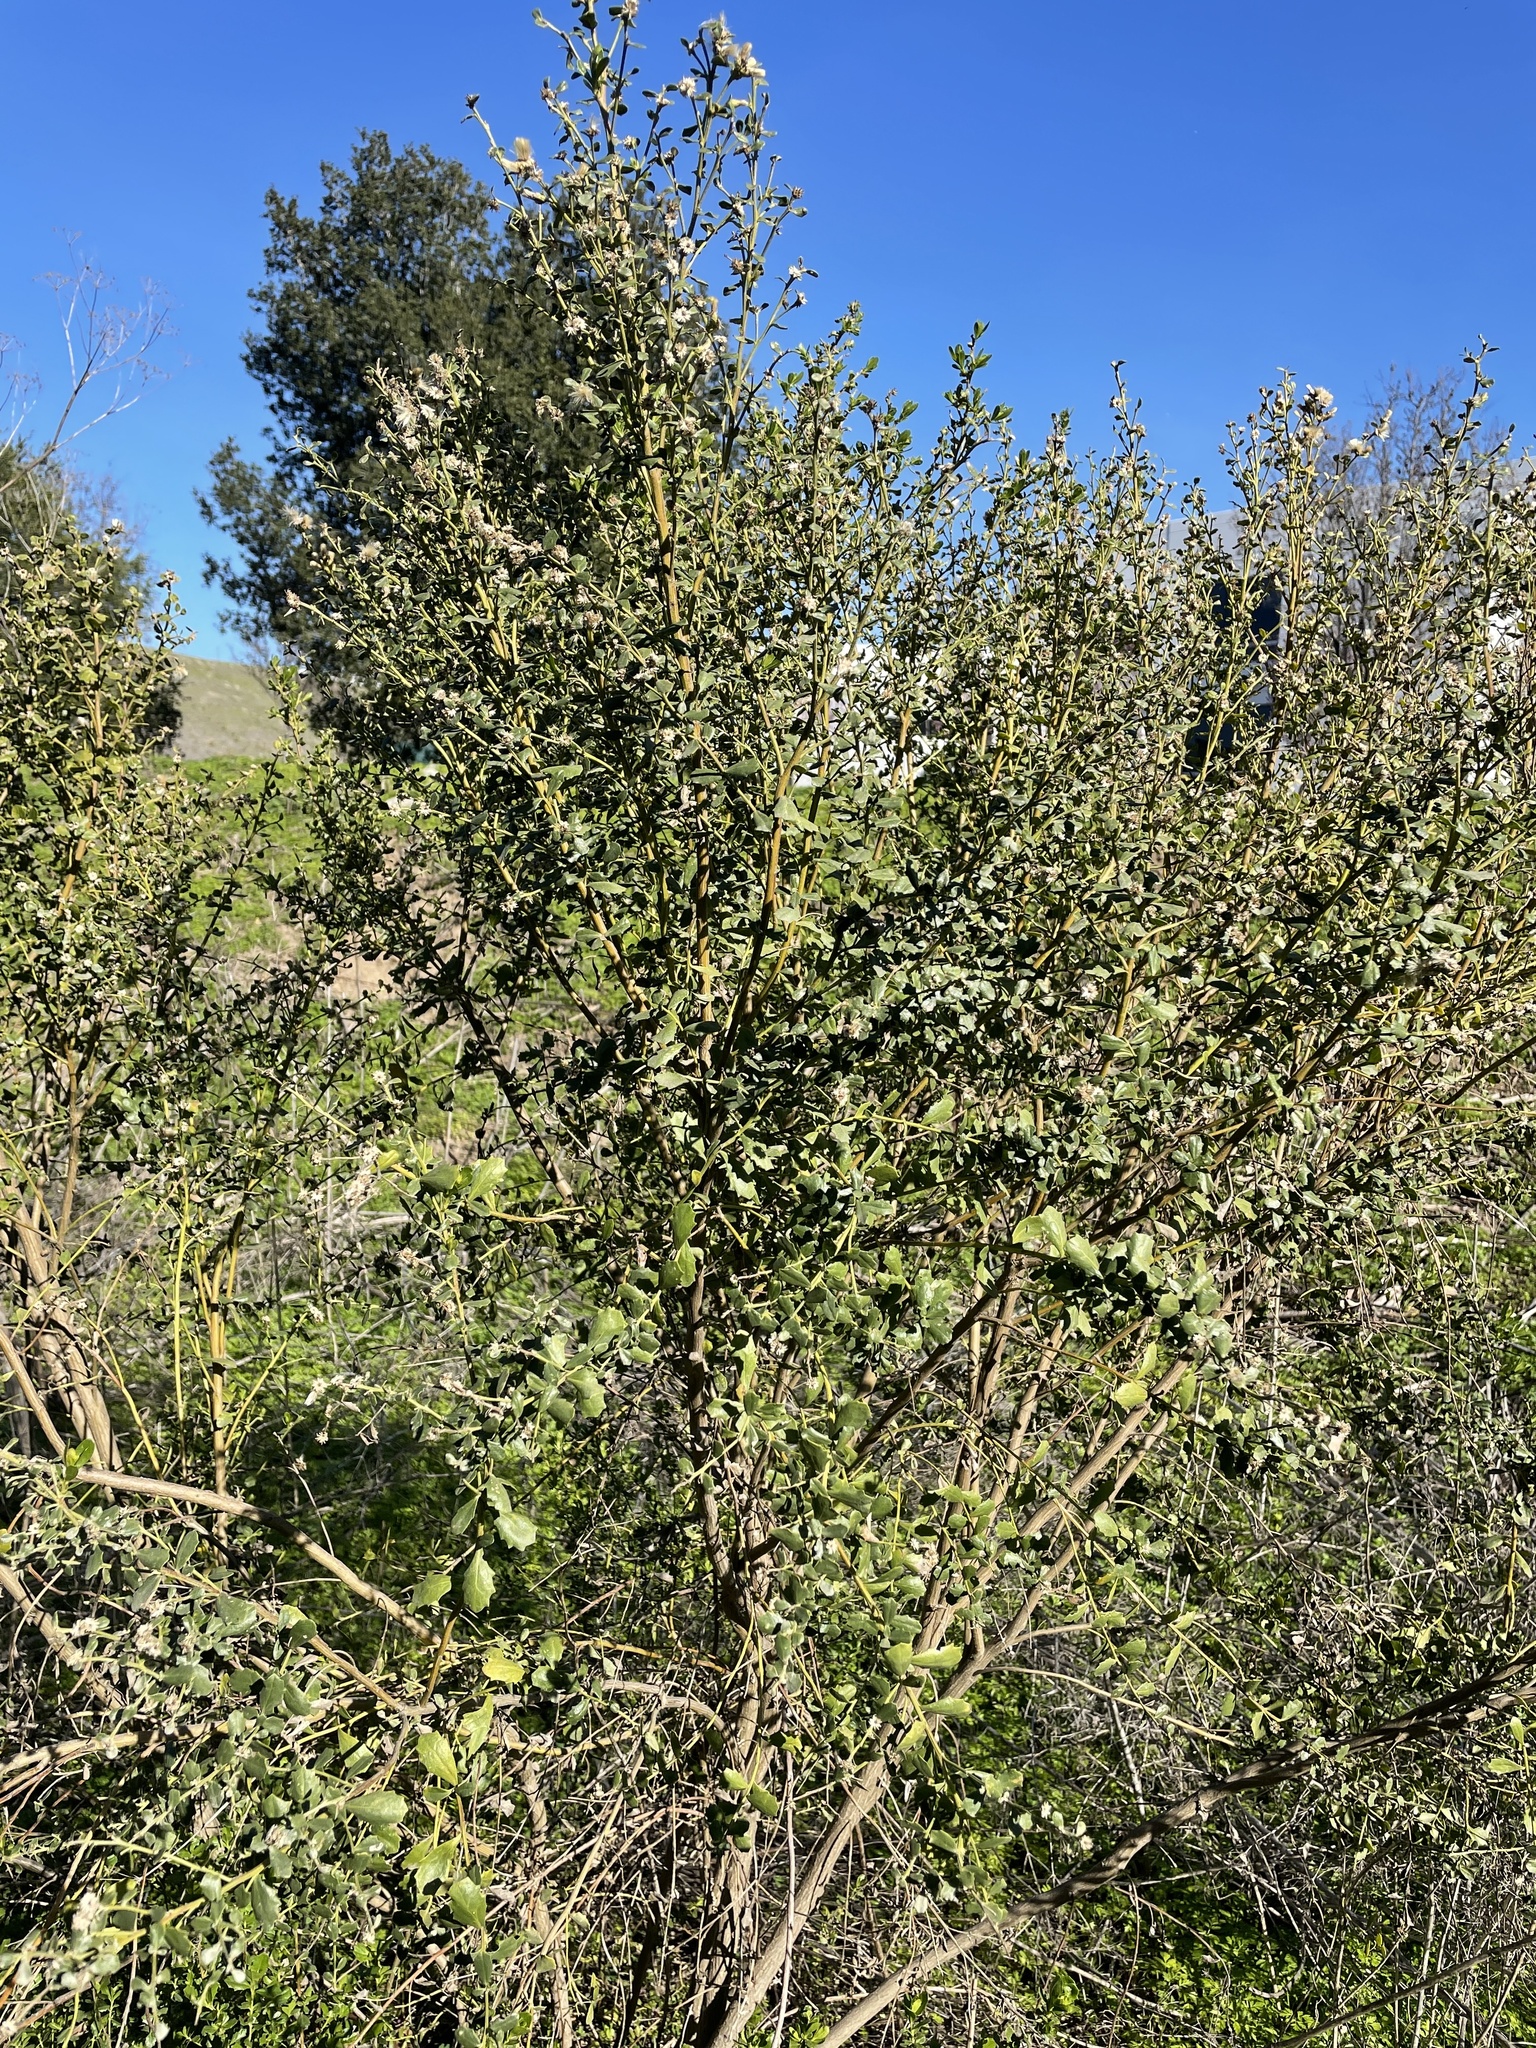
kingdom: Plantae
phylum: Tracheophyta
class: Magnoliopsida
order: Asterales
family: Asteraceae
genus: Baccharis
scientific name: Baccharis pilularis
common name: Coyotebrush
